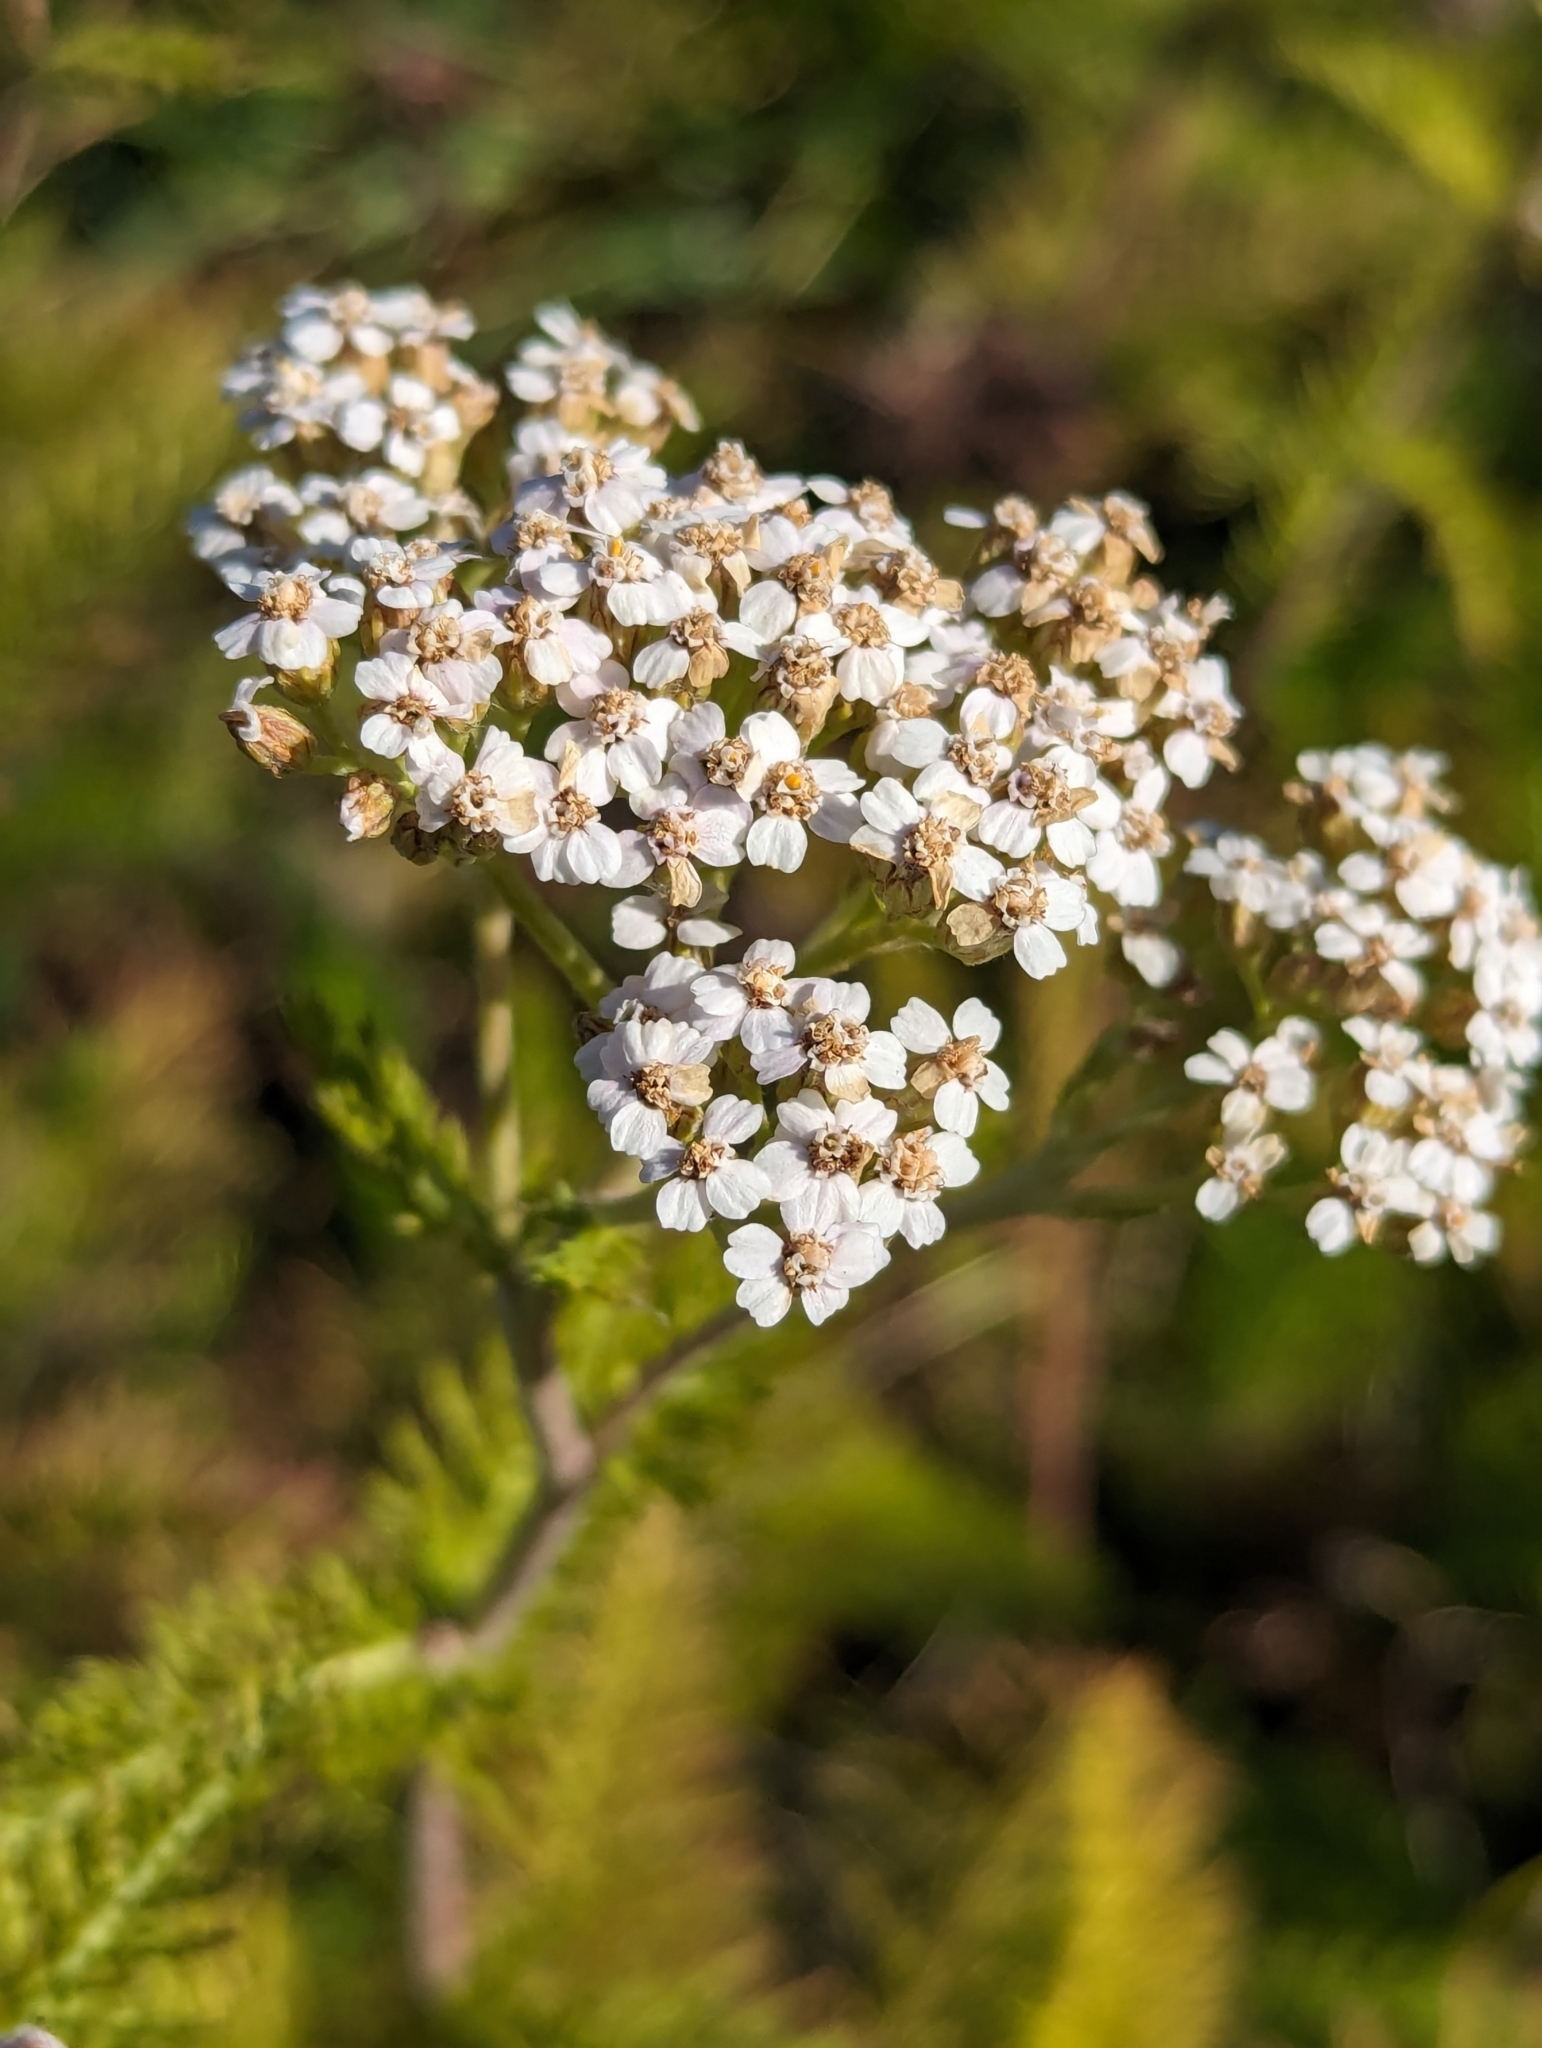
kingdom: Plantae
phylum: Tracheophyta
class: Magnoliopsida
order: Asterales
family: Asteraceae
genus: Achillea
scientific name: Achillea millefolium
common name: Yarrow
